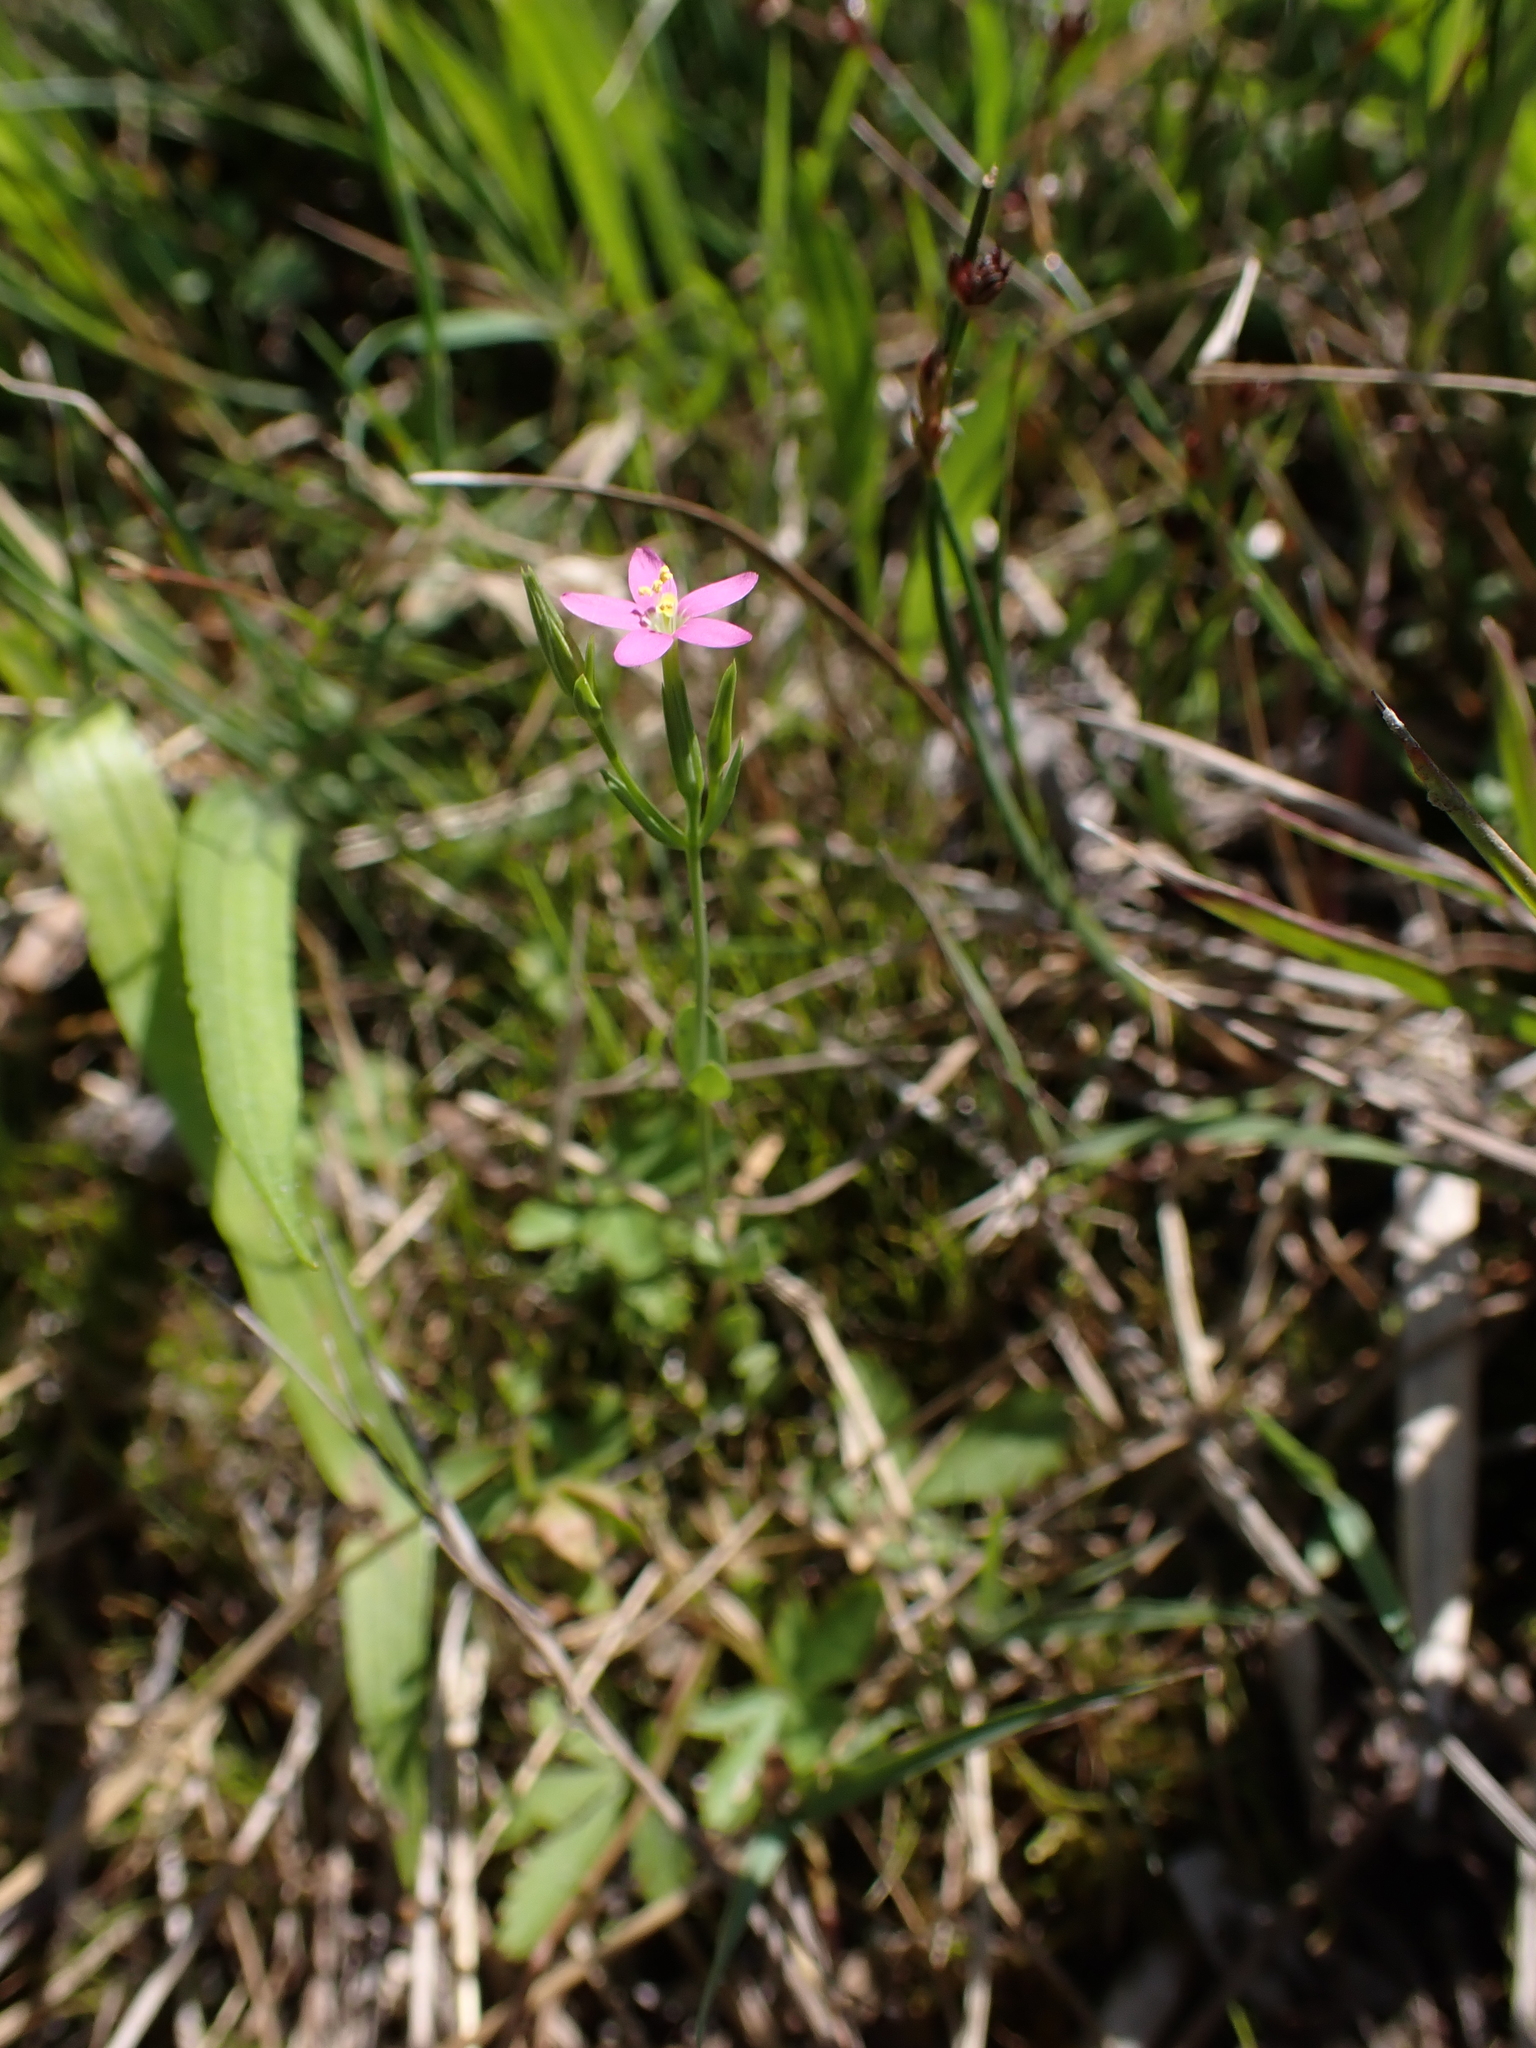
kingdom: Plantae
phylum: Tracheophyta
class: Magnoliopsida
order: Gentianales
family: Gentianaceae
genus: Centaurium
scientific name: Centaurium pulchellum
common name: Lesser centaury
